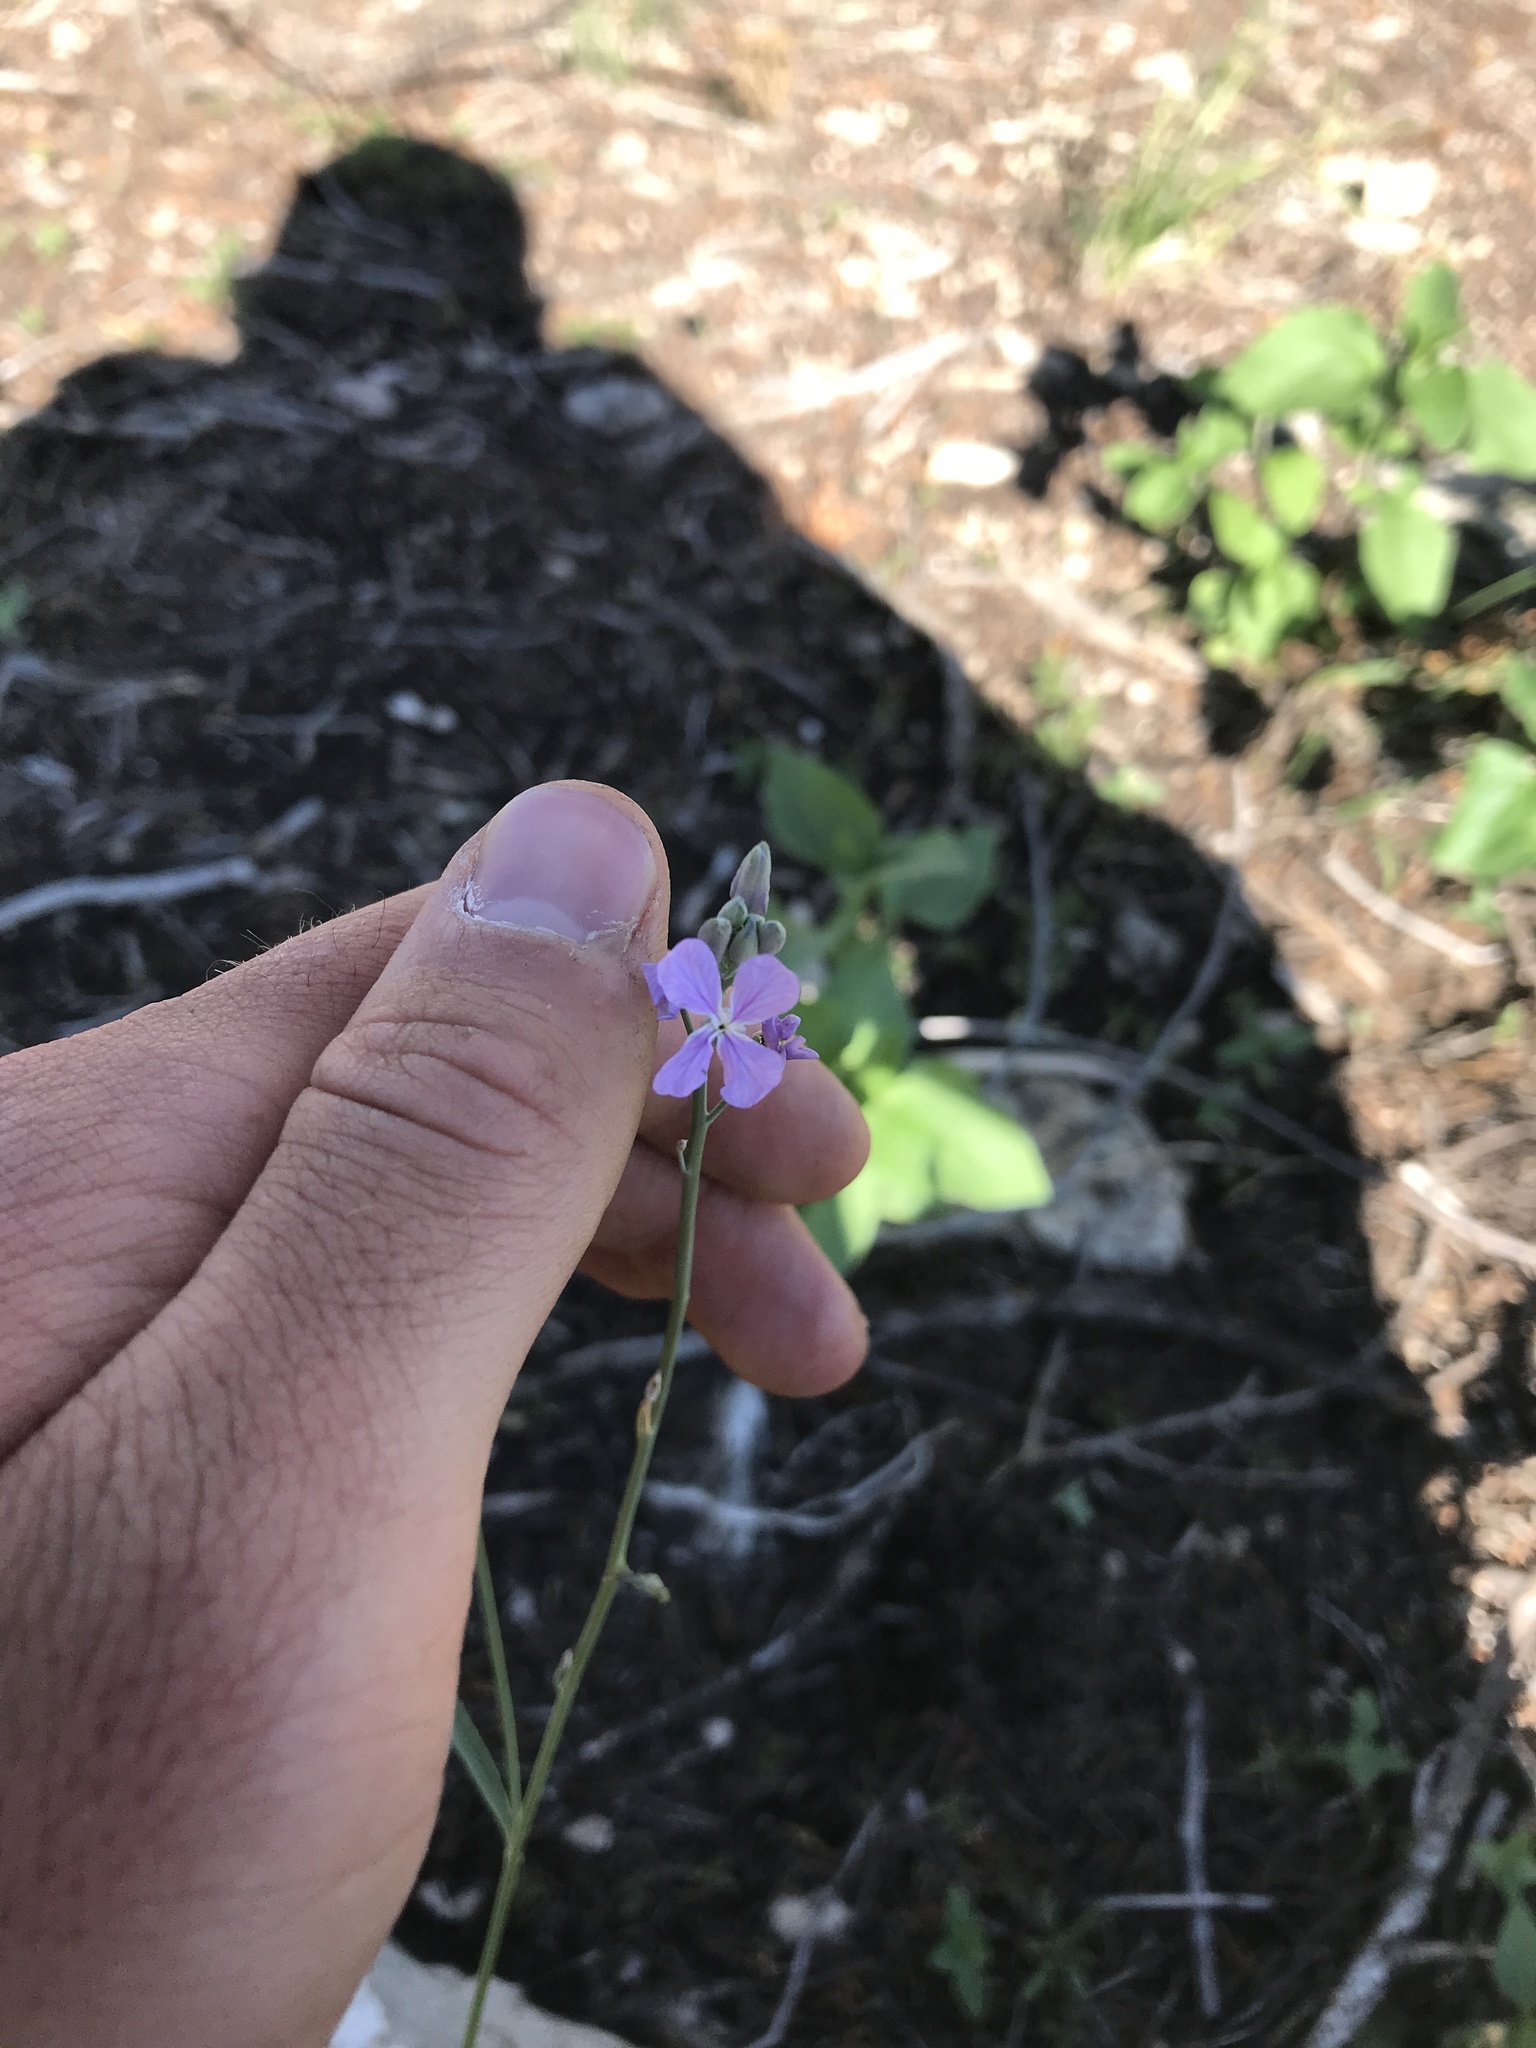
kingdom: Plantae
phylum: Tracheophyta
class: Magnoliopsida
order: Brassicales
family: Brassicaceae
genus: Hesperidanthus
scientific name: Hesperidanthus linearifolius
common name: Slim-leaf plains mustard
